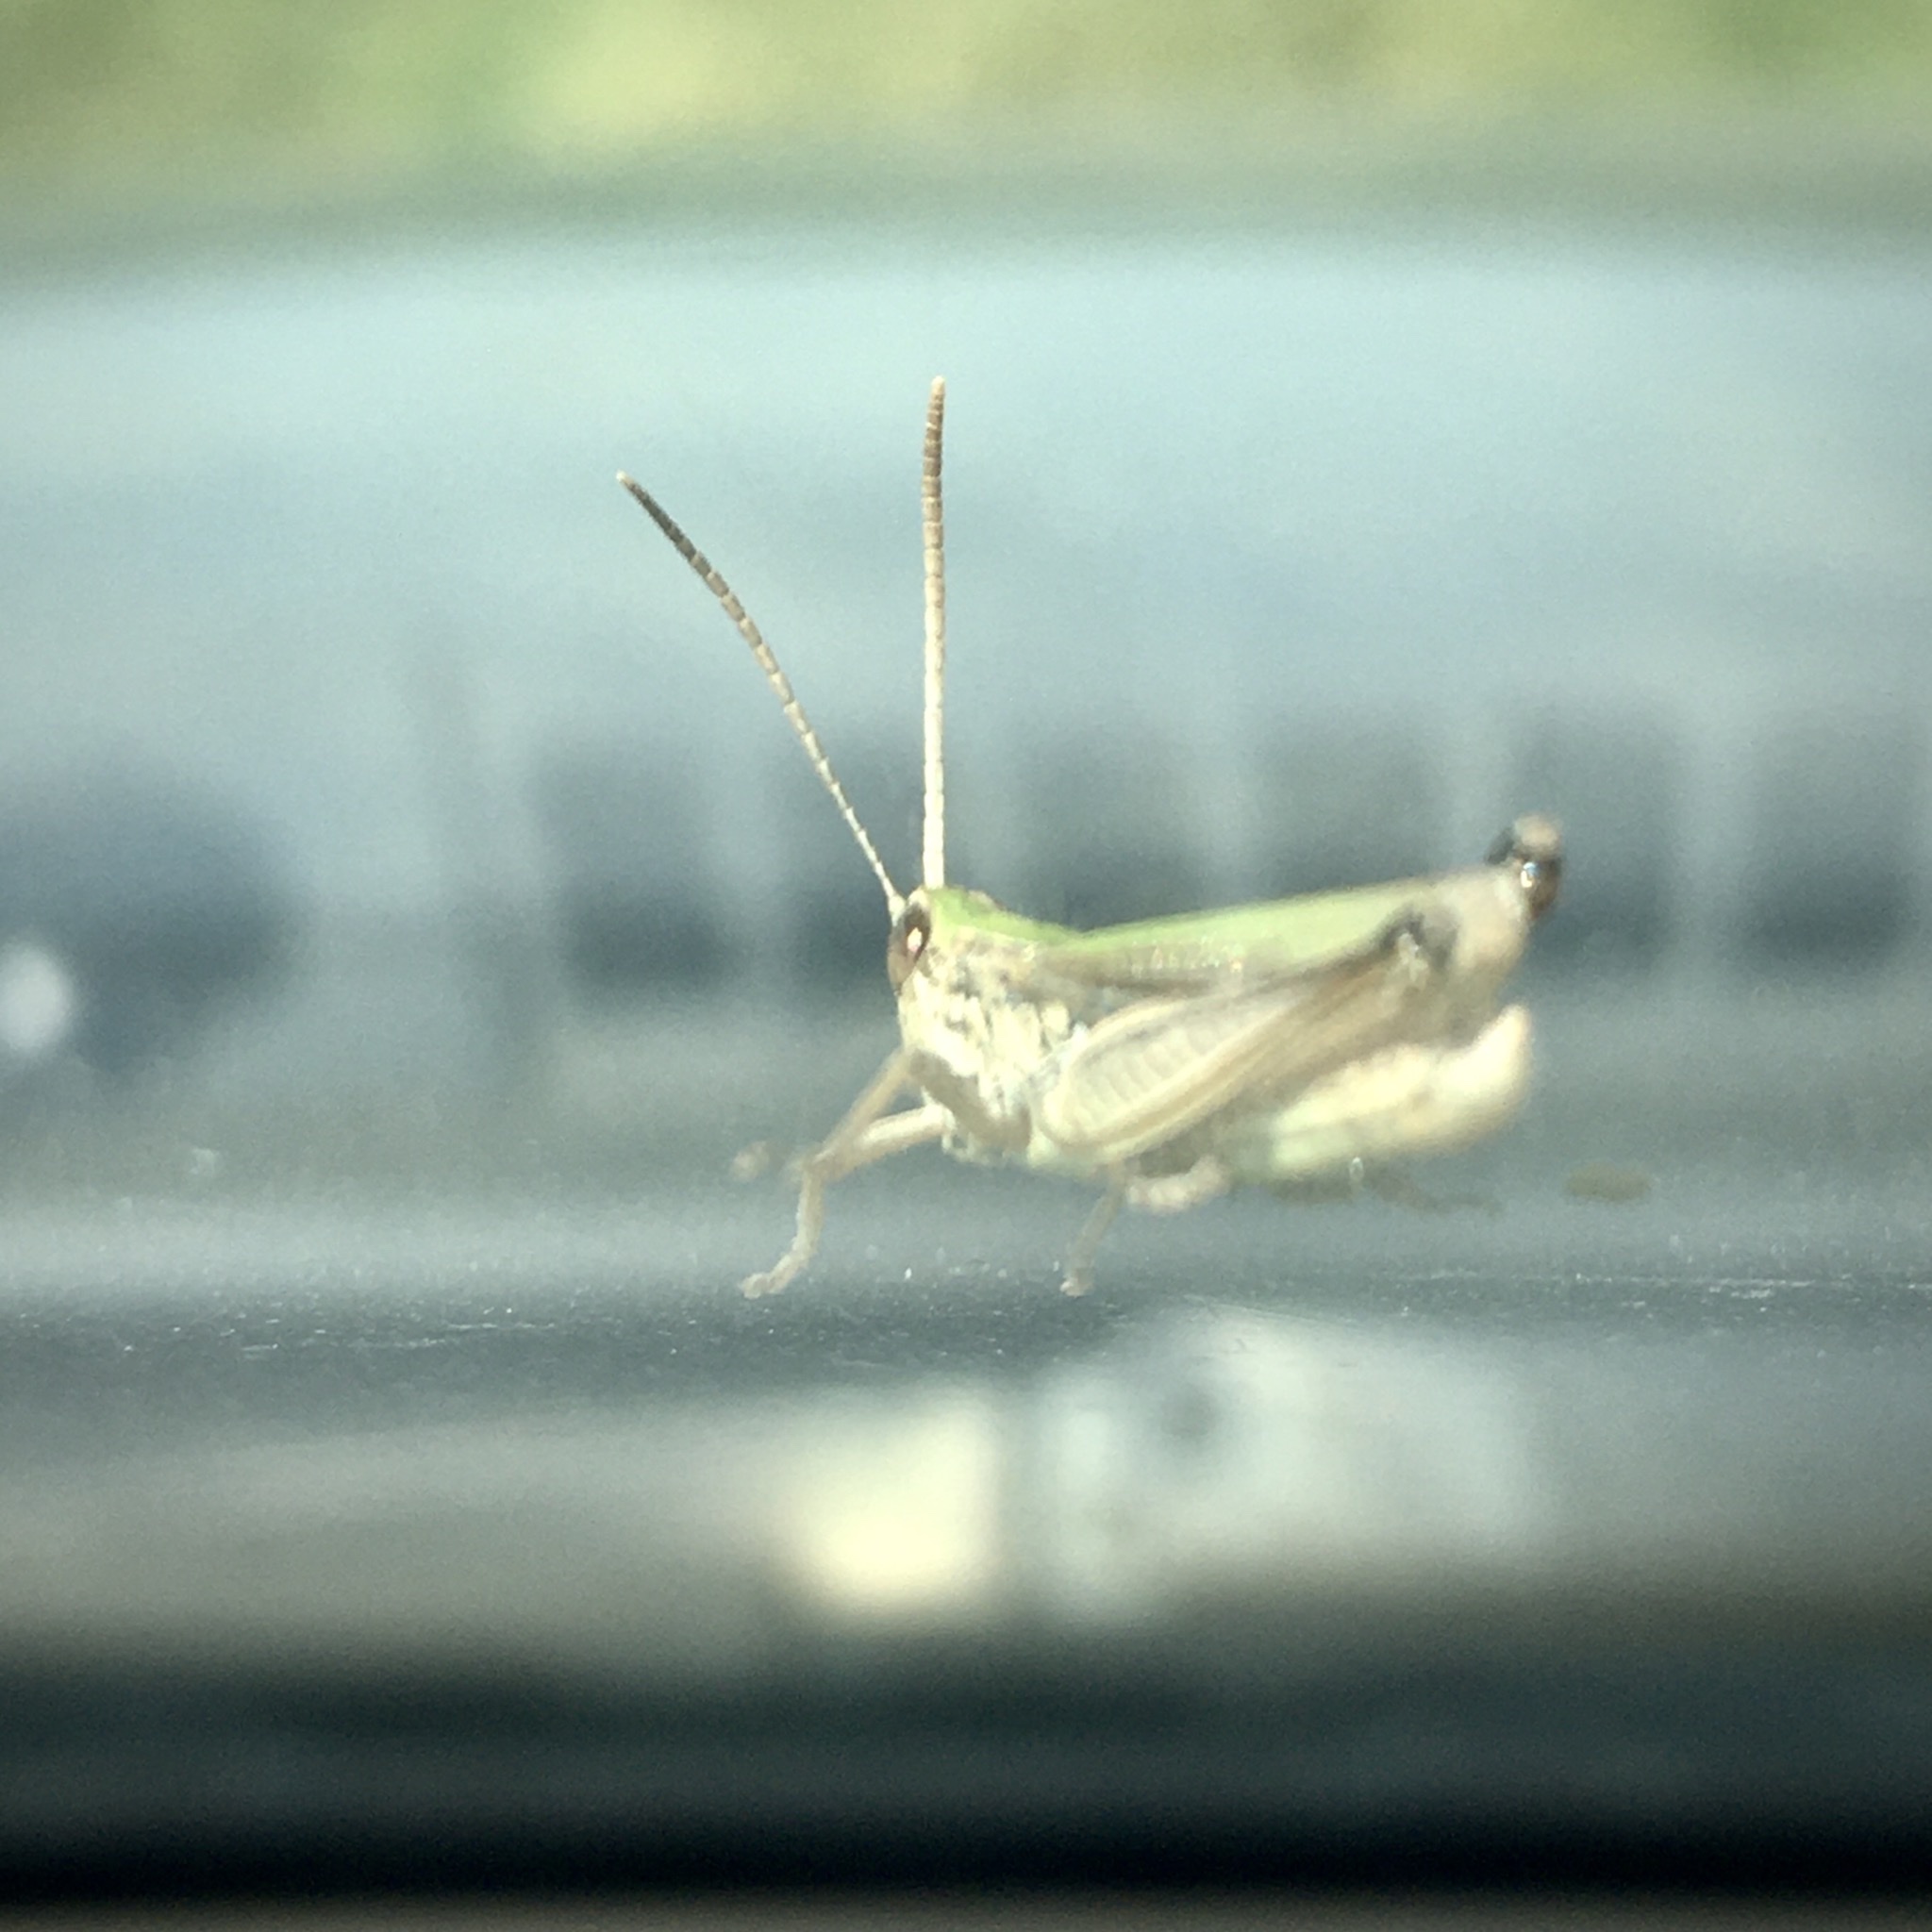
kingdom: Animalia
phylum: Arthropoda
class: Insecta
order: Orthoptera
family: Acrididae
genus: Chorthippus
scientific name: Chorthippus
